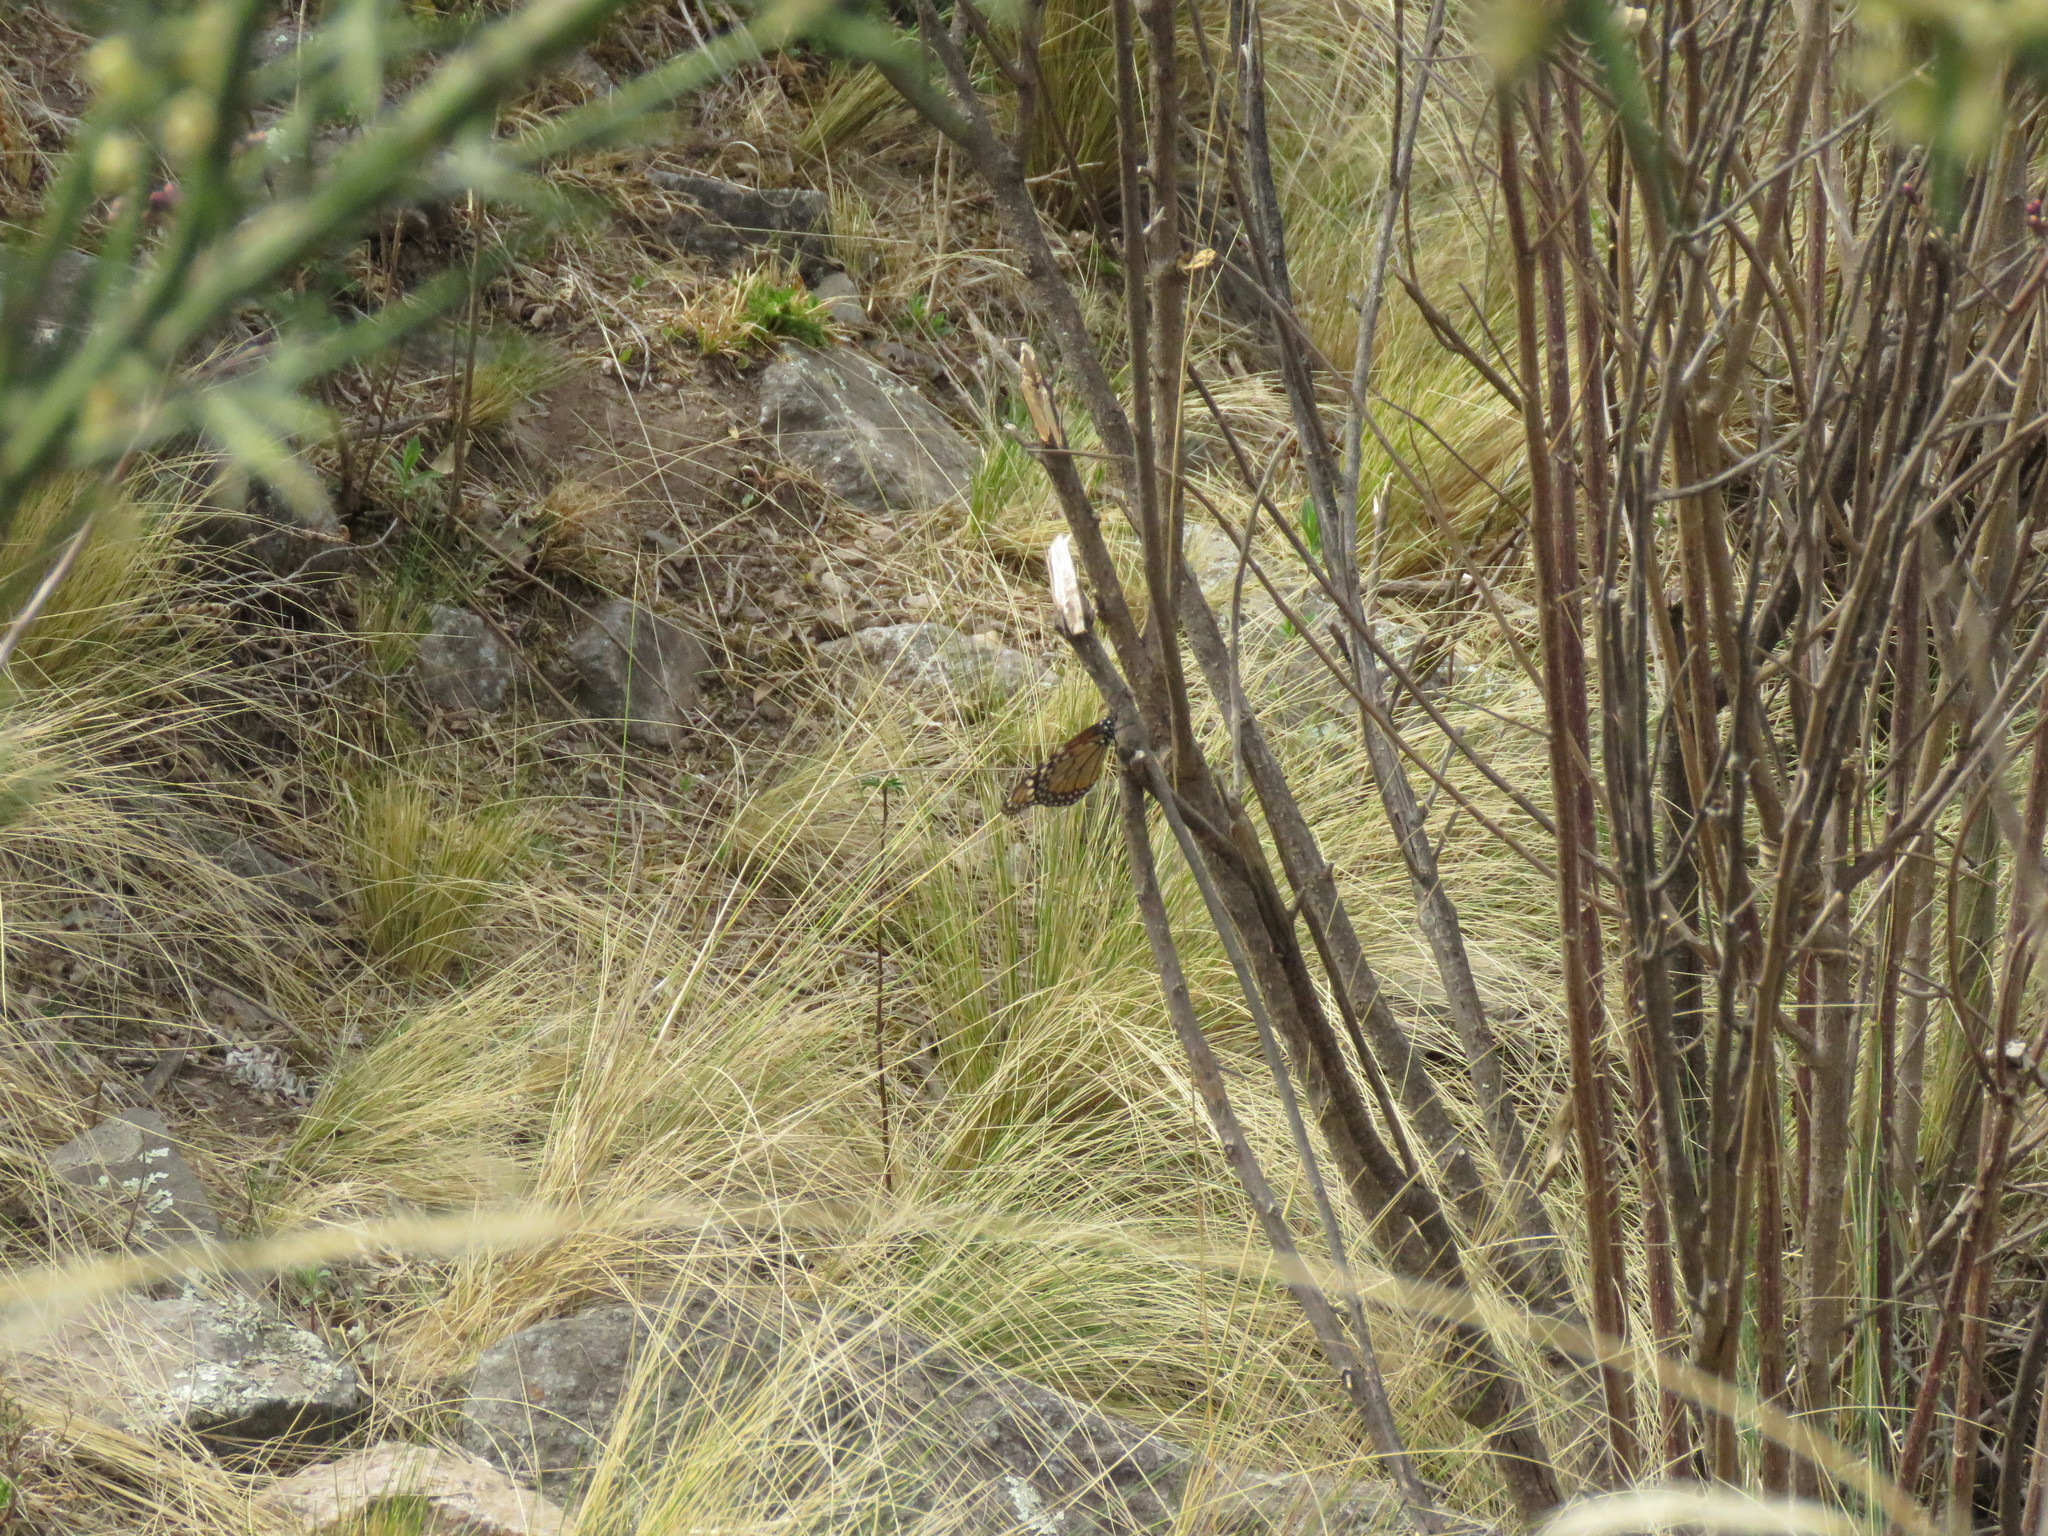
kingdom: Animalia
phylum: Arthropoda
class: Insecta
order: Lepidoptera
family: Nymphalidae
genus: Danaus
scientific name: Danaus erippus
